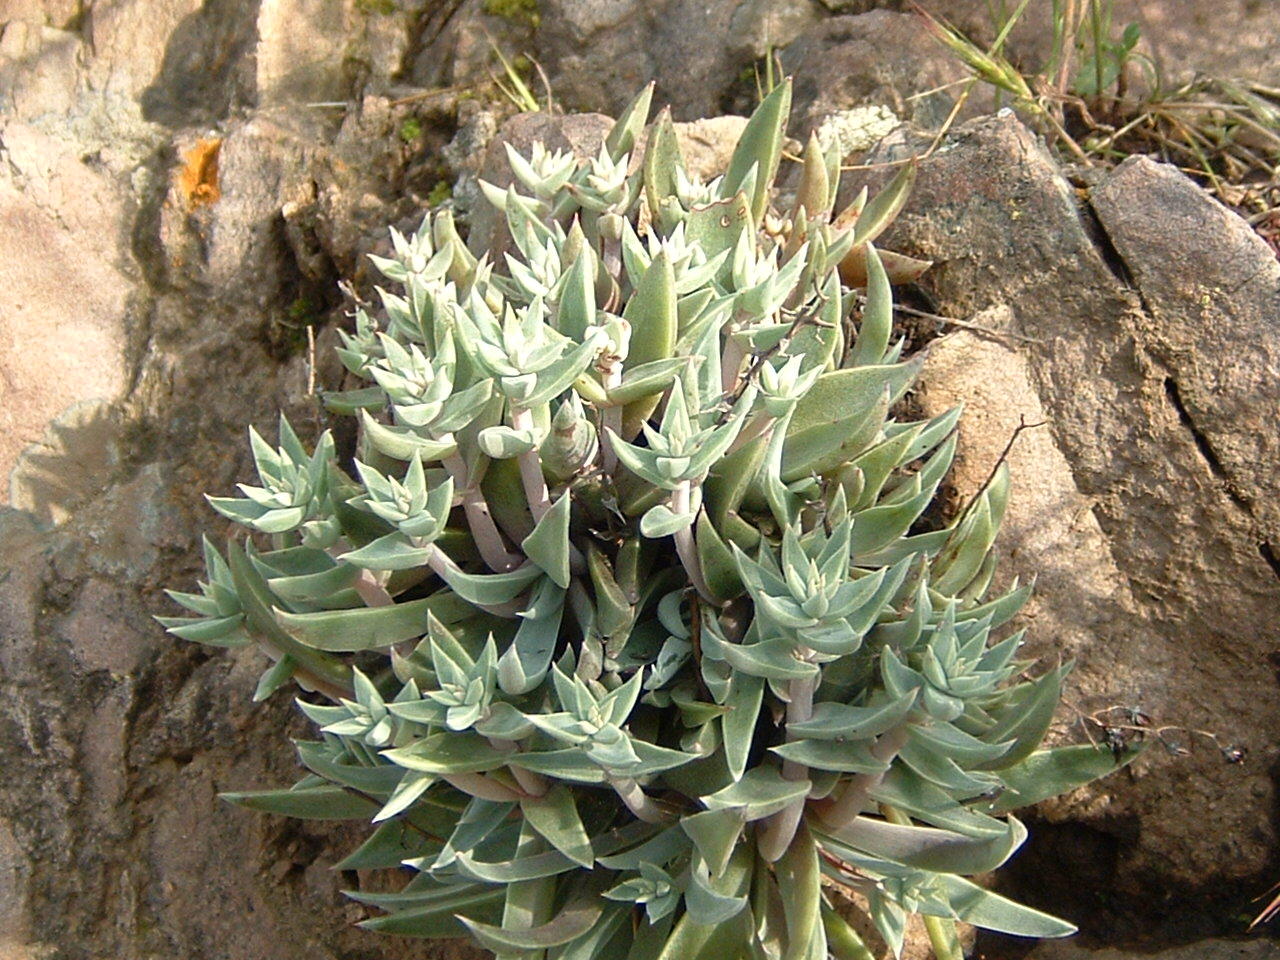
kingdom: Plantae
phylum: Tracheophyta
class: Magnoliopsida
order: Saxifragales
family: Crassulaceae
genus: Dudleya
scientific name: Dudleya verityi
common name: Verity dudleya
